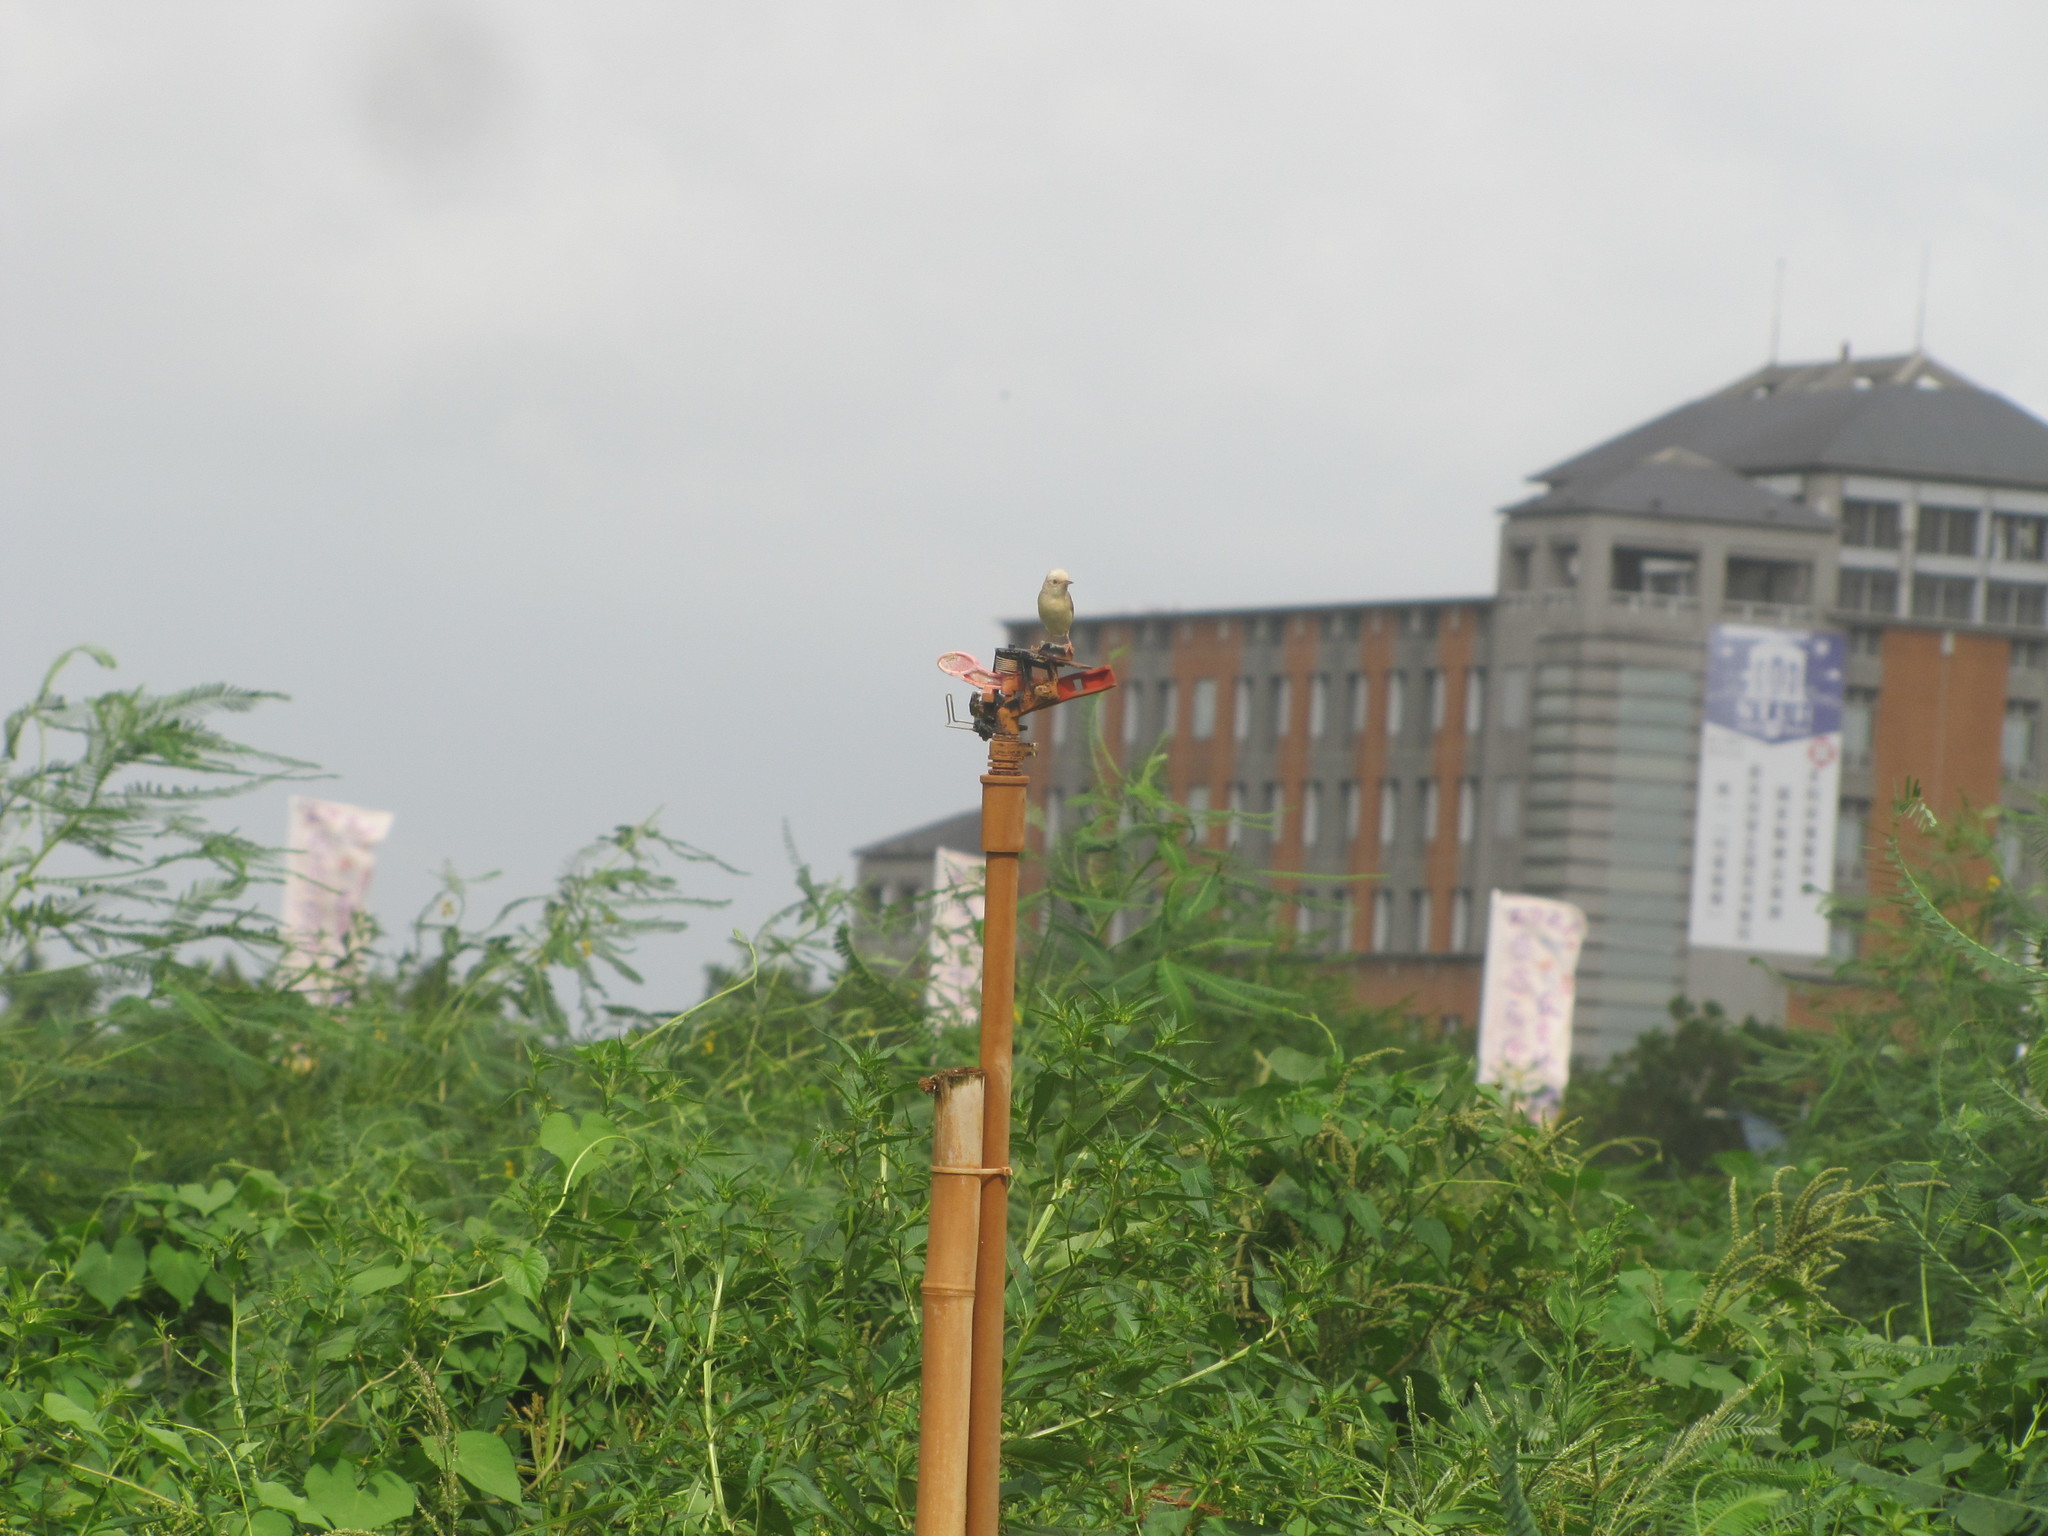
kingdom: Animalia
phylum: Chordata
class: Aves
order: Passeriformes
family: Cisticolidae
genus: Cisticola
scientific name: Cisticola exilis
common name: Golden-headed cisticola
